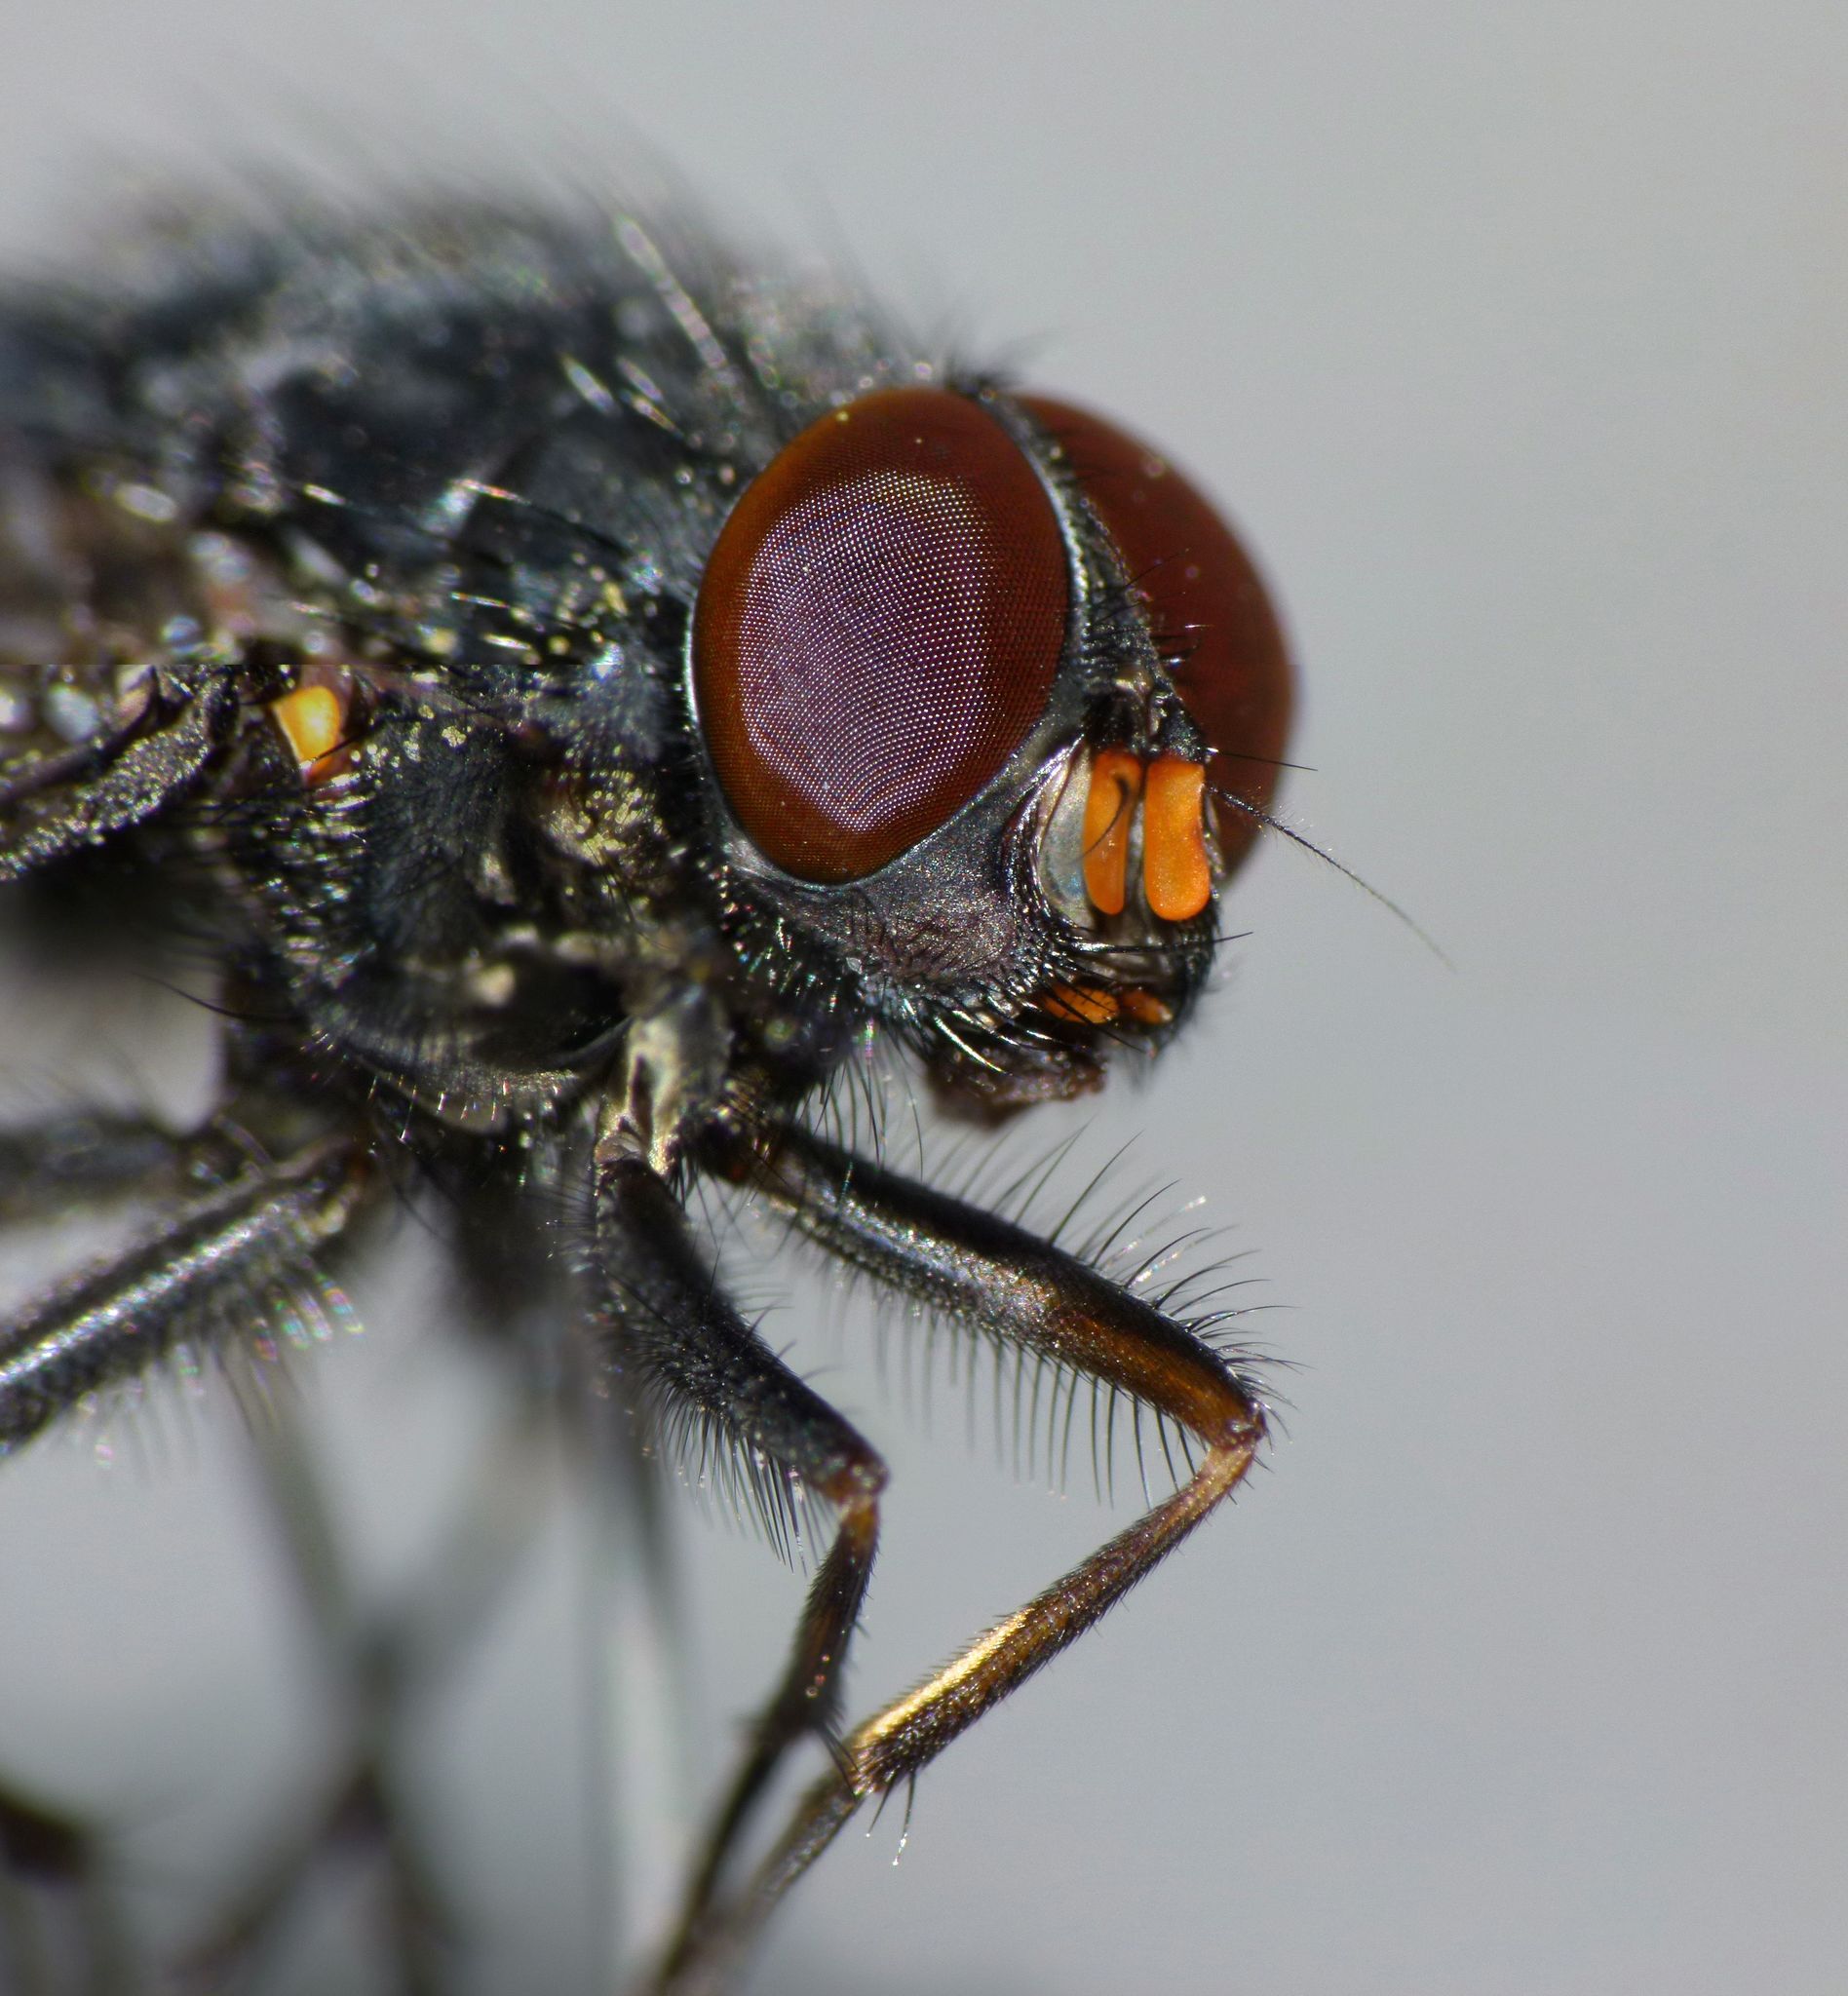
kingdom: Animalia
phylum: Arthropoda
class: Insecta
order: Diptera
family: Muscidae
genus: Calliphoroides
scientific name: Calliphoroides antennatis
